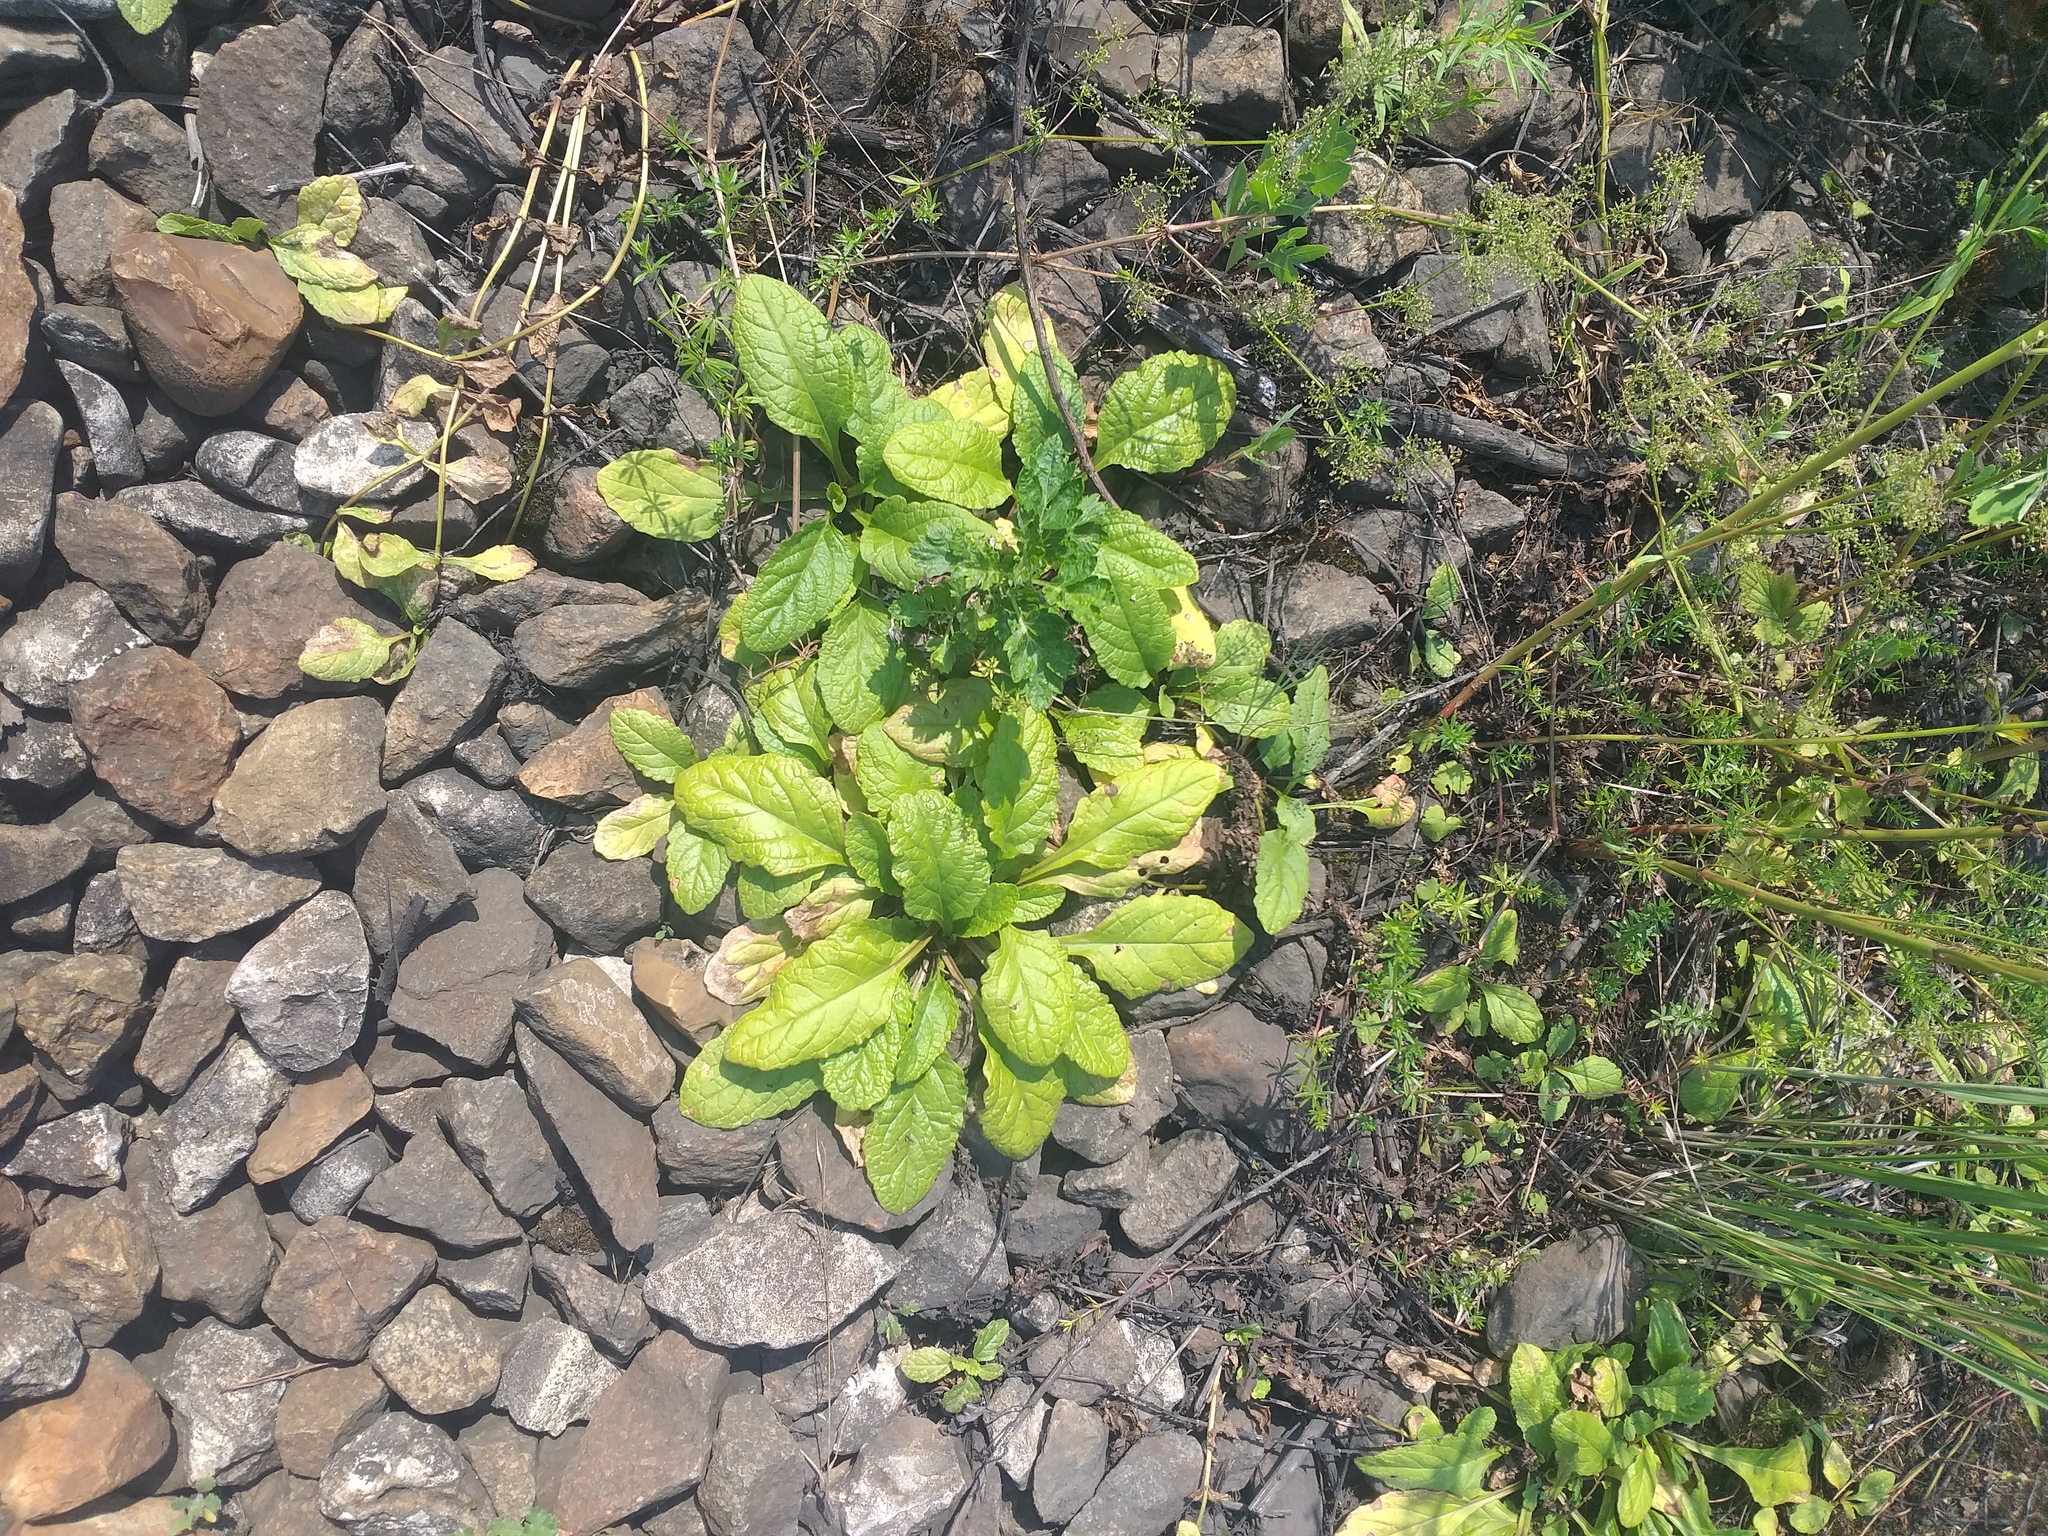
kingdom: Plantae
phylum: Tracheophyta
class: Magnoliopsida
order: Lamiales
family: Lamiaceae
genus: Ajuga
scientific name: Ajuga reptans
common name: Bugle
